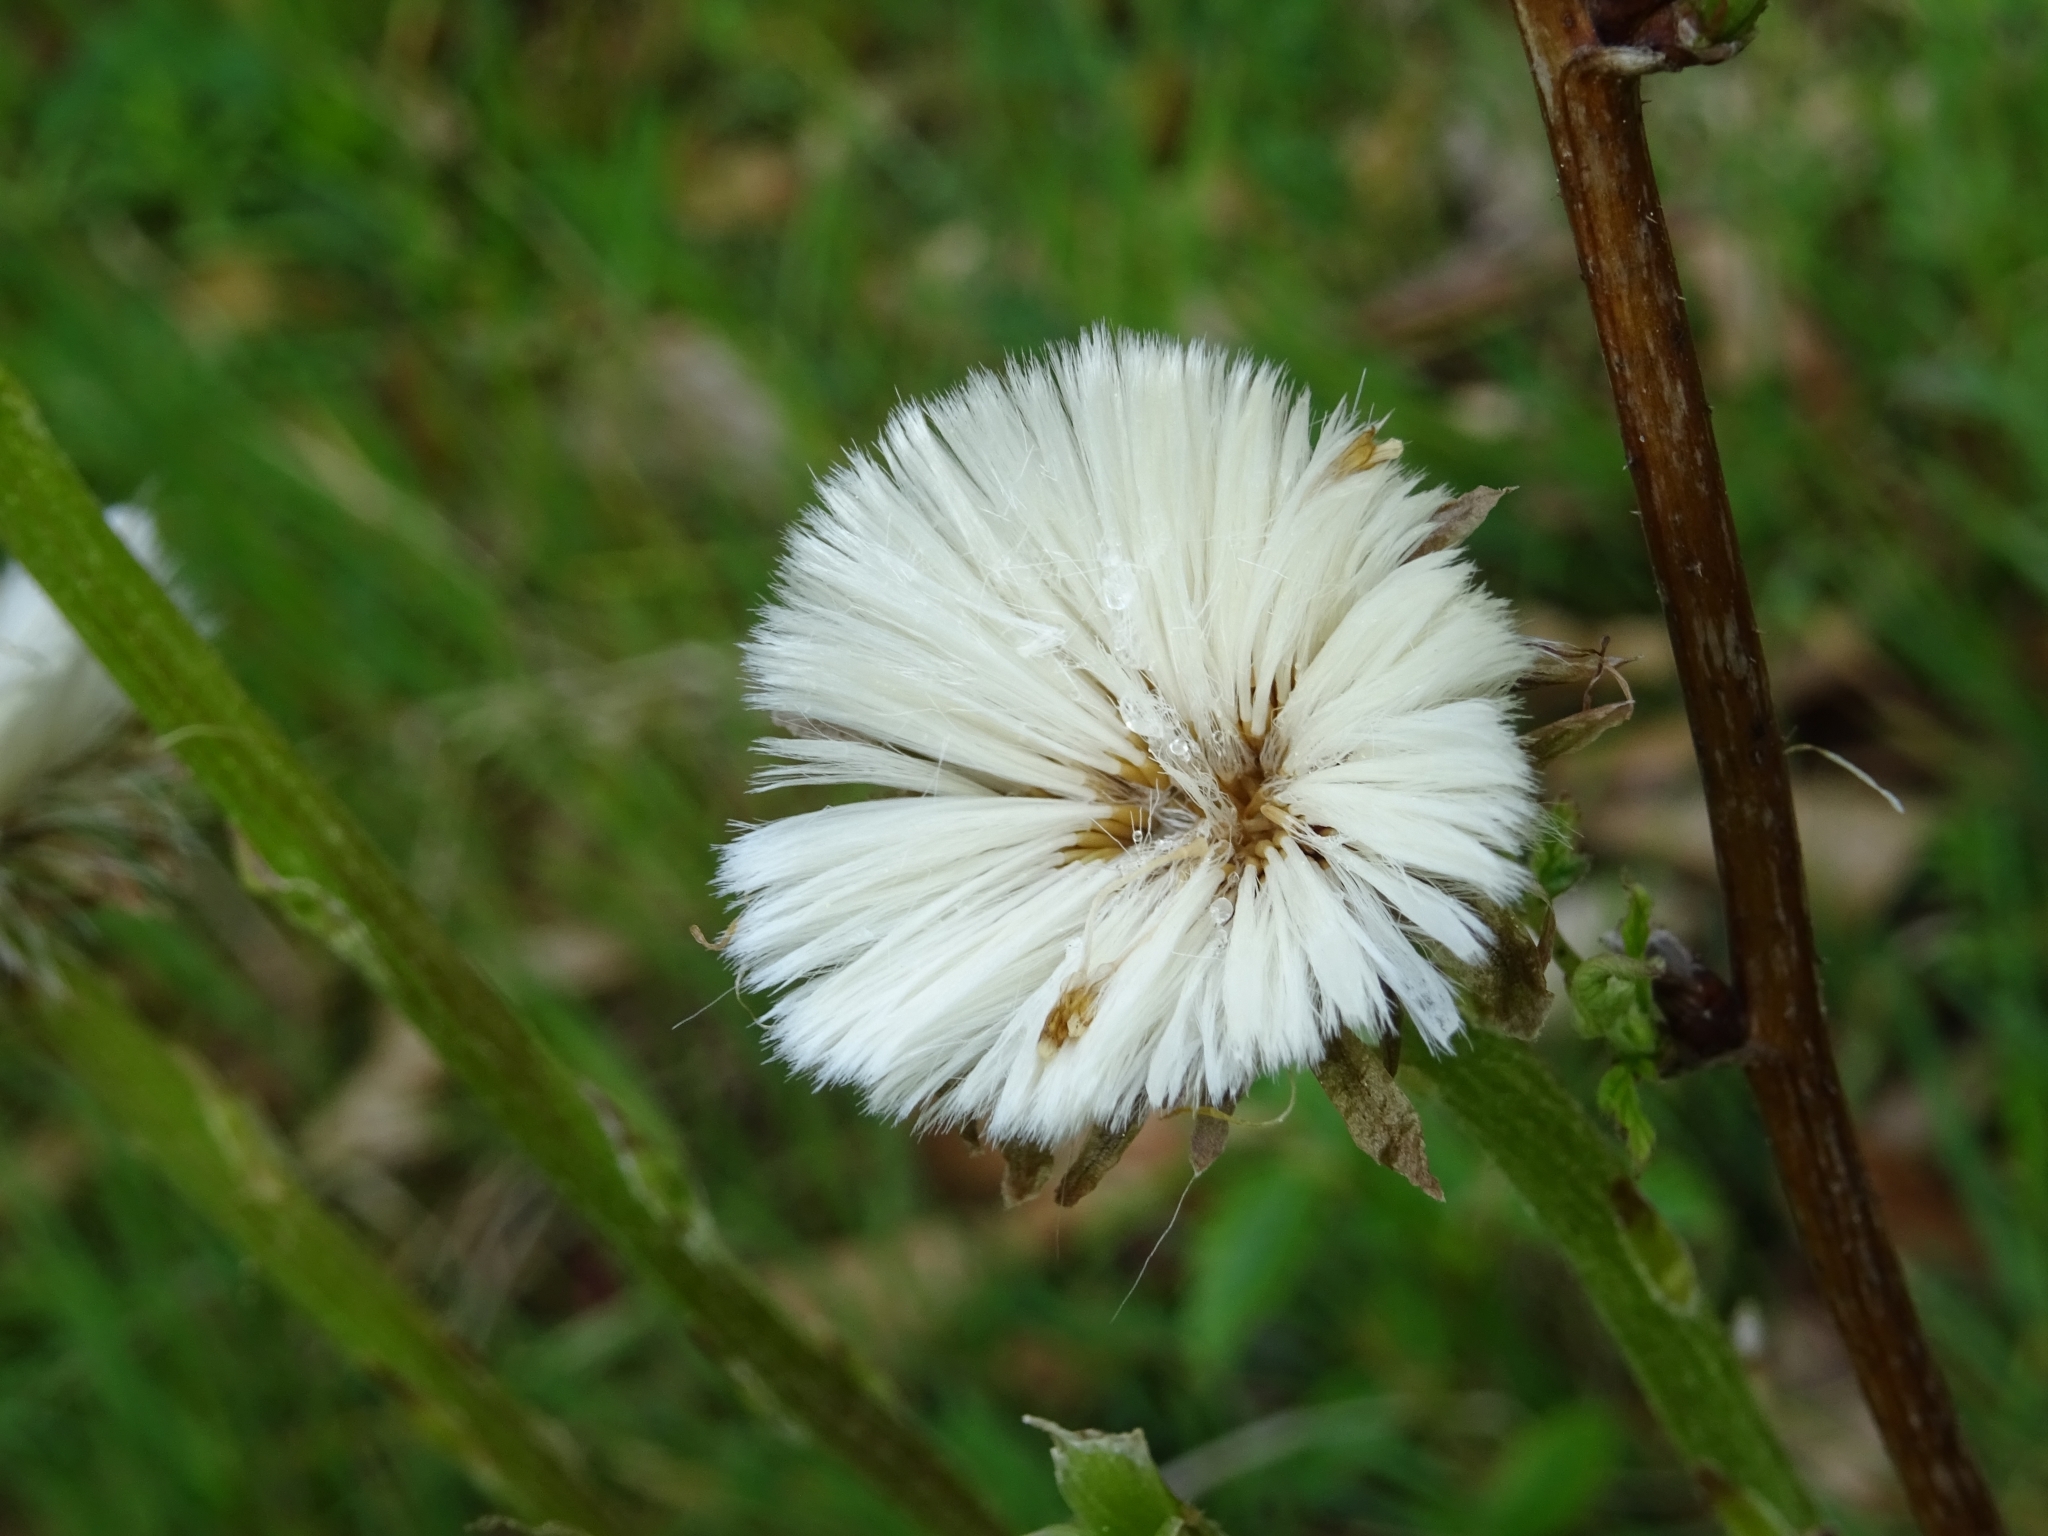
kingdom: Plantae
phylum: Tracheophyta
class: Magnoliopsida
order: Asterales
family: Asteraceae
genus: Tussilago
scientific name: Tussilago farfara
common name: Coltsfoot
